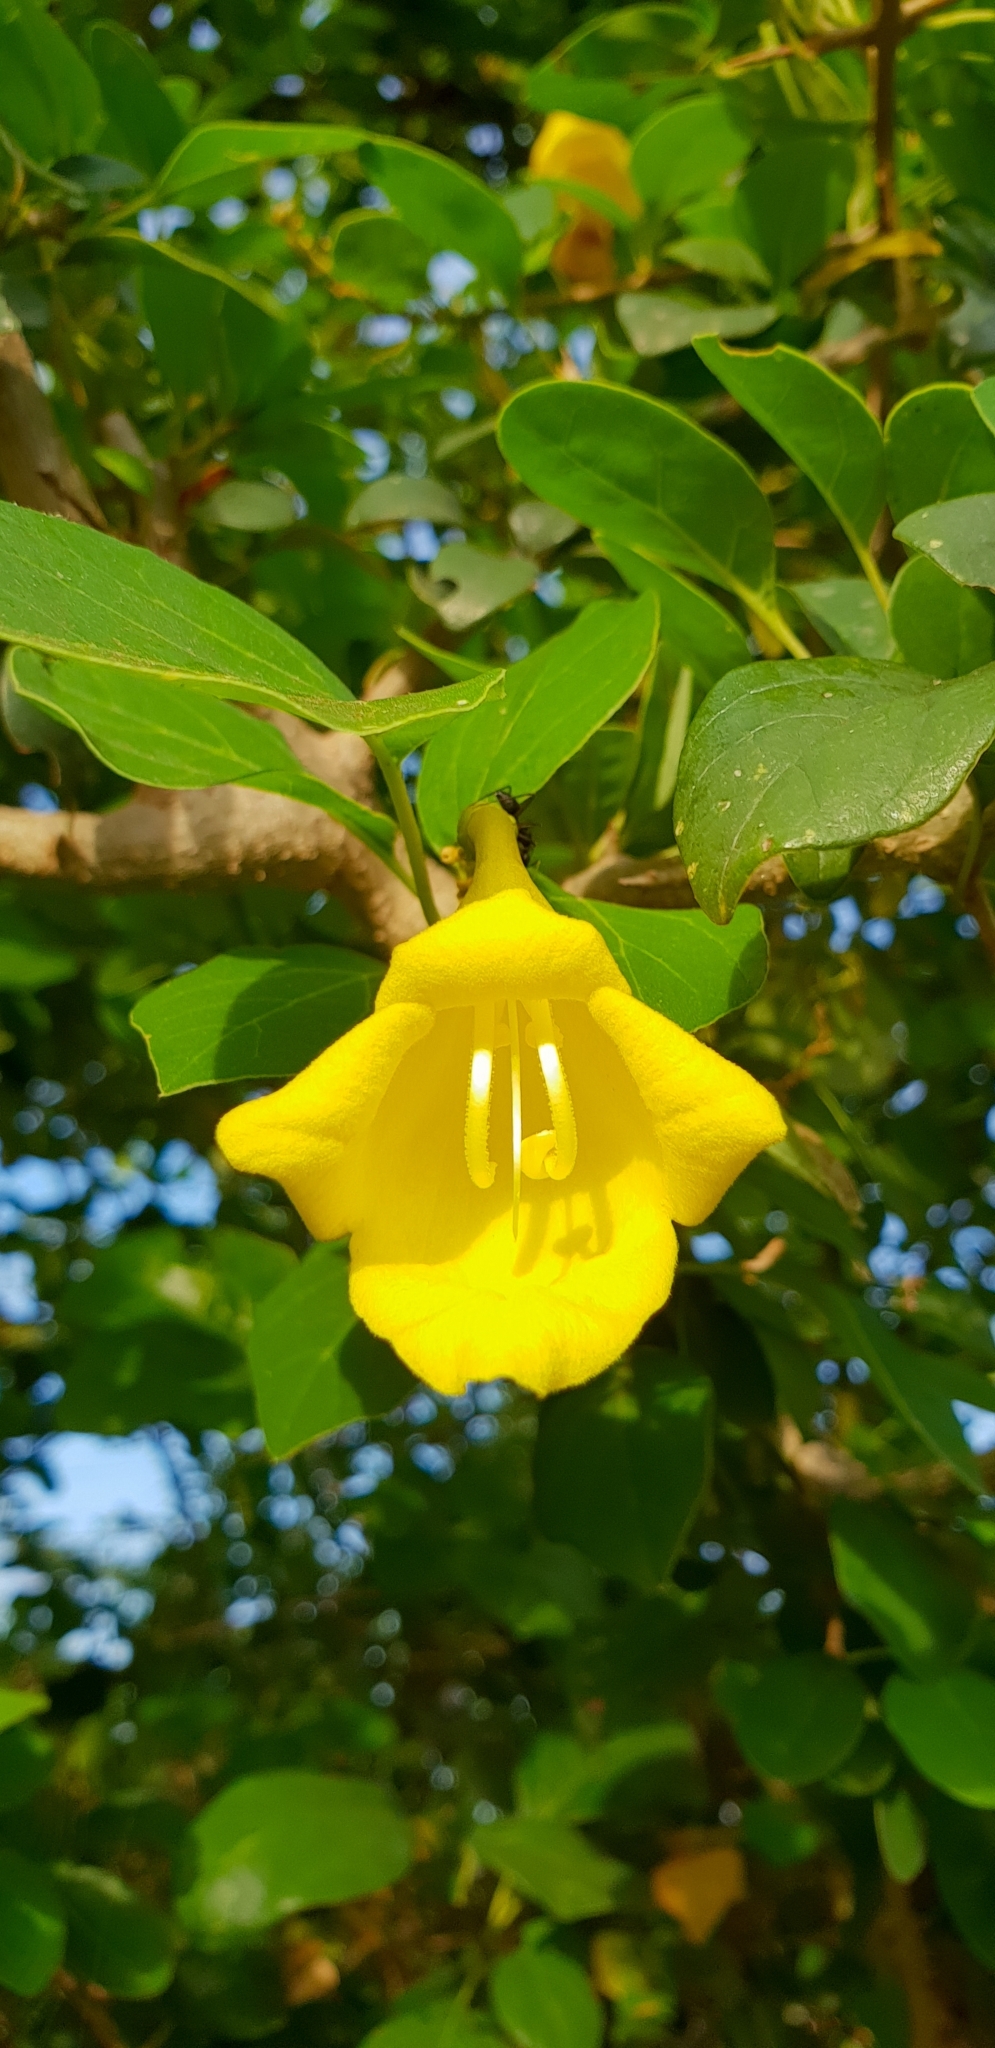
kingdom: Plantae
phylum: Tracheophyta
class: Magnoliopsida
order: Lamiales
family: Lamiaceae
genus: Gmelina
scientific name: Gmelina asiatica
